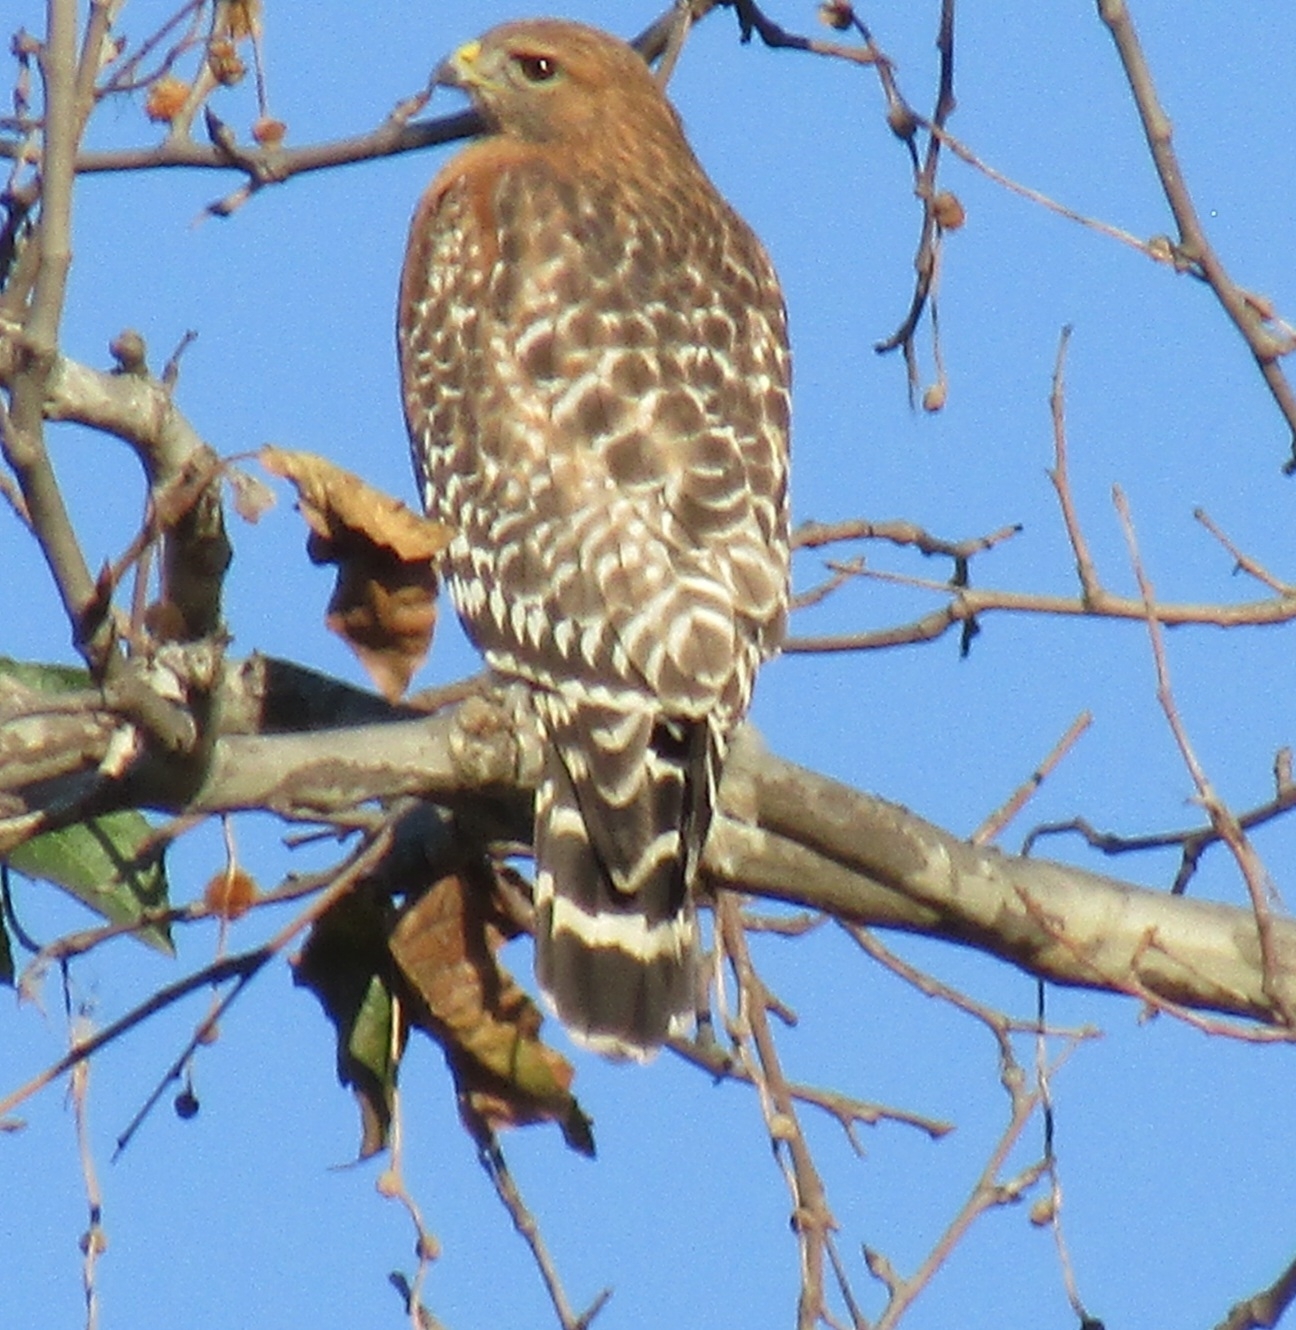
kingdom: Animalia
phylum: Chordata
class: Aves
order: Accipitriformes
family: Accipitridae
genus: Buteo
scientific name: Buteo lineatus
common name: Red-shouldered hawk
